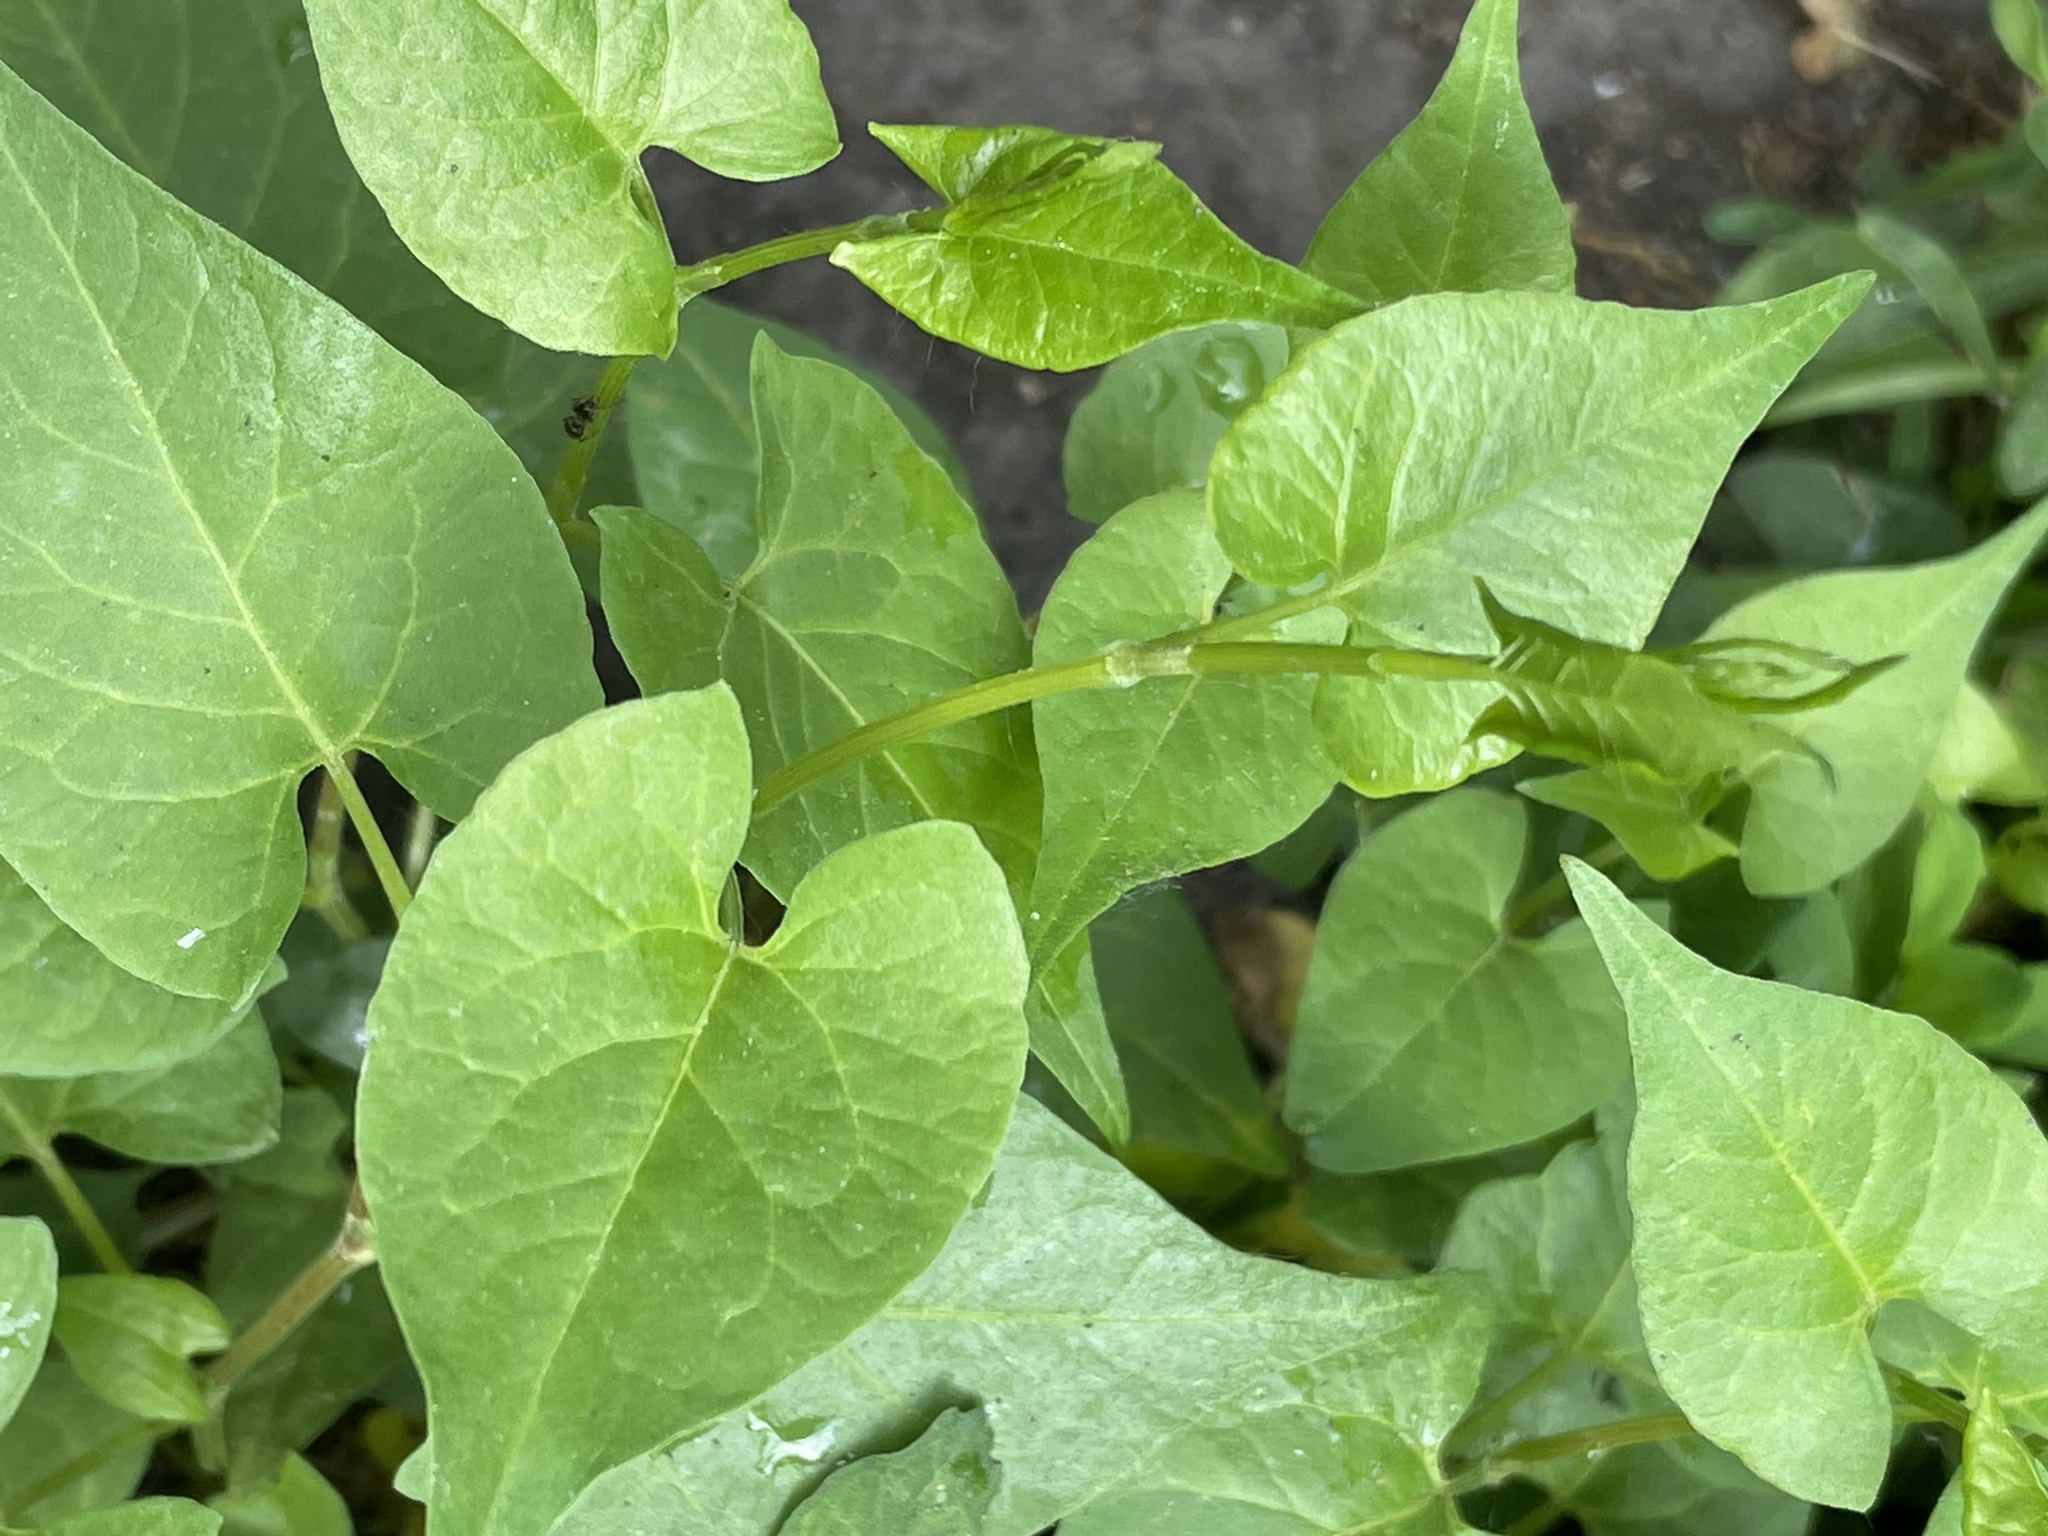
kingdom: Plantae
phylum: Tracheophyta
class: Magnoliopsida
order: Caryophyllales
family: Polygonaceae
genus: Fallopia
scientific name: Fallopia convolvulus
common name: Black bindweed
